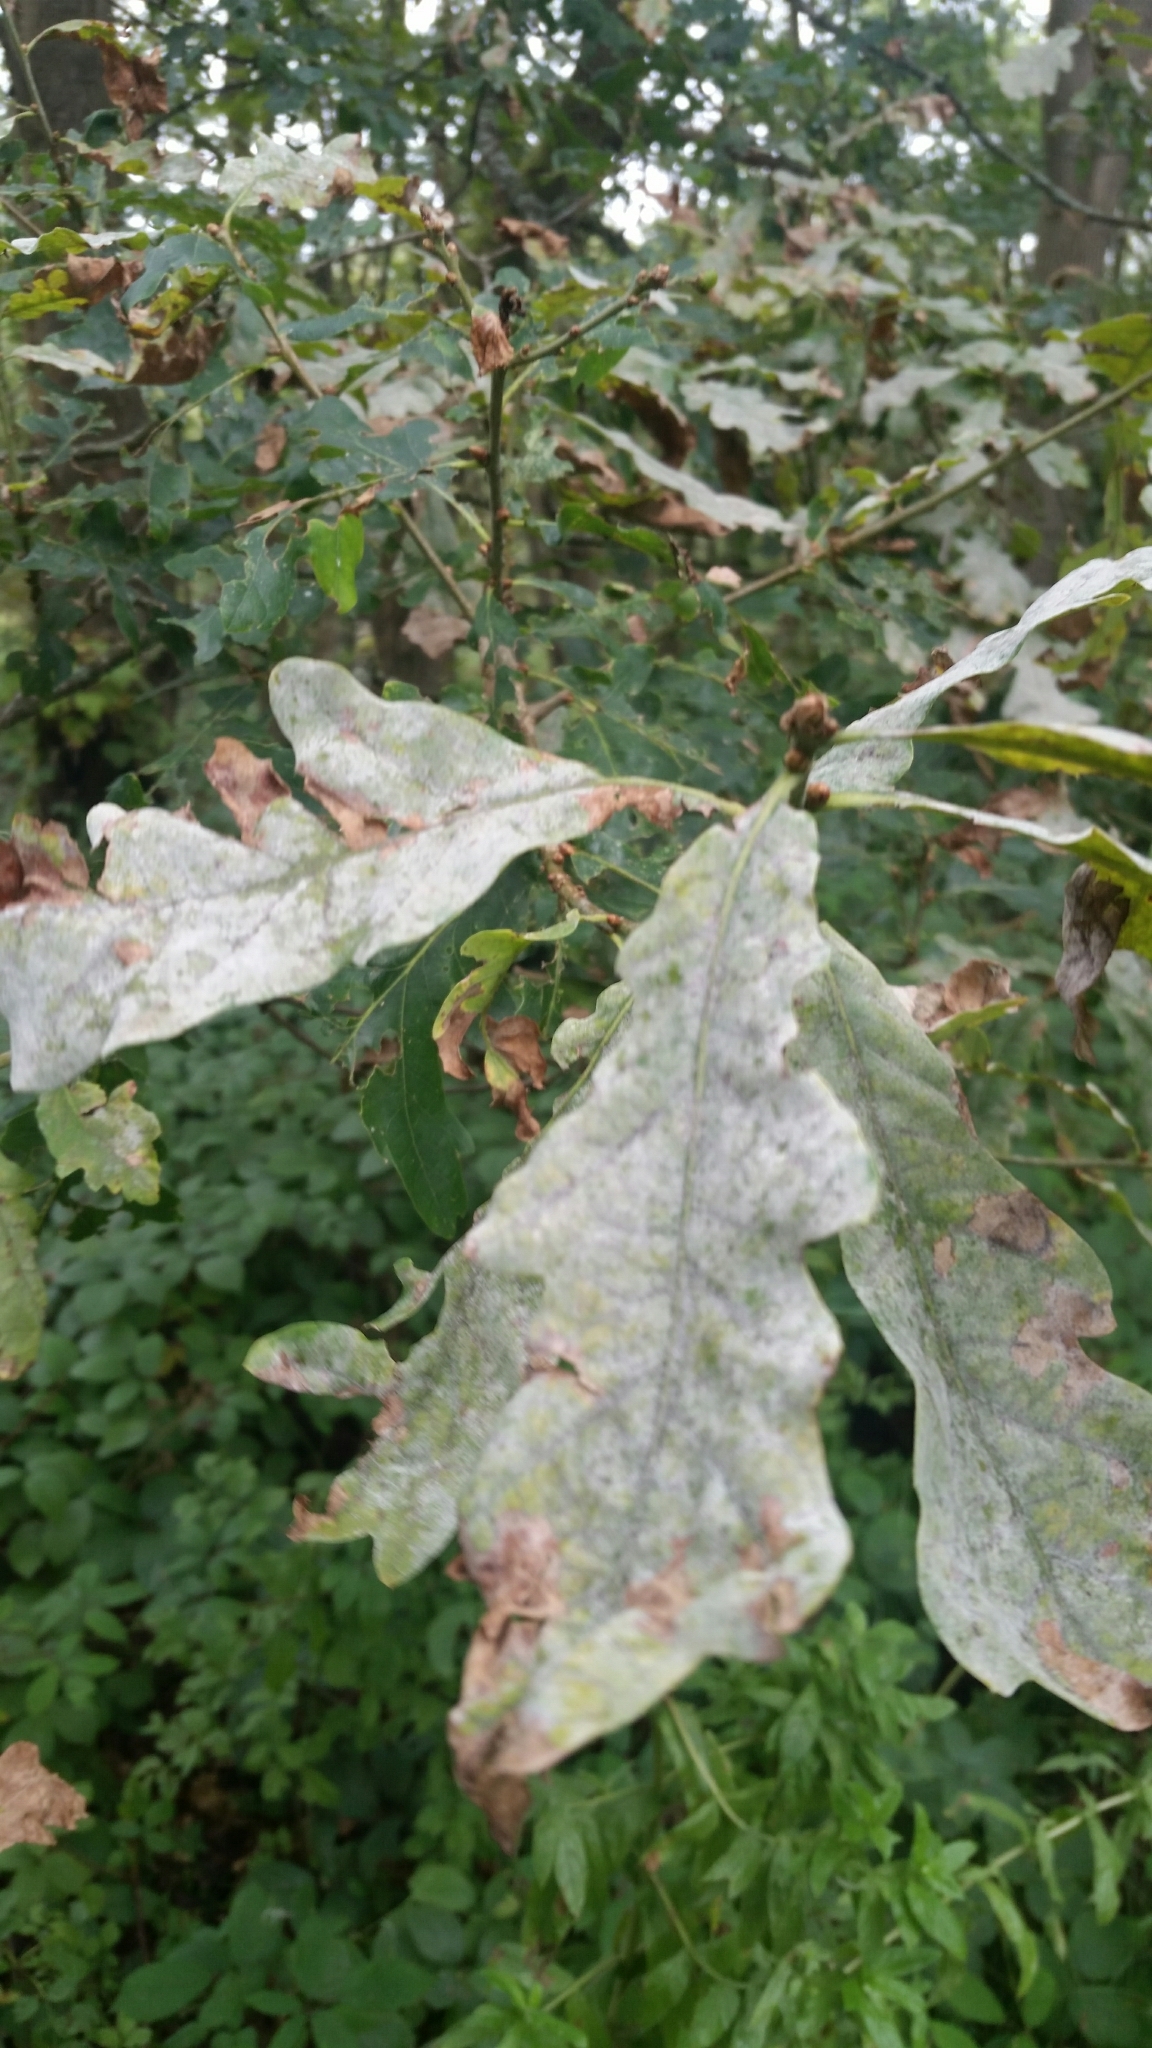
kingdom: Fungi
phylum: Ascomycota
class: Leotiomycetes
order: Helotiales
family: Erysiphaceae
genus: Erysiphe
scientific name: Erysiphe alphitoides
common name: Oak mildew
